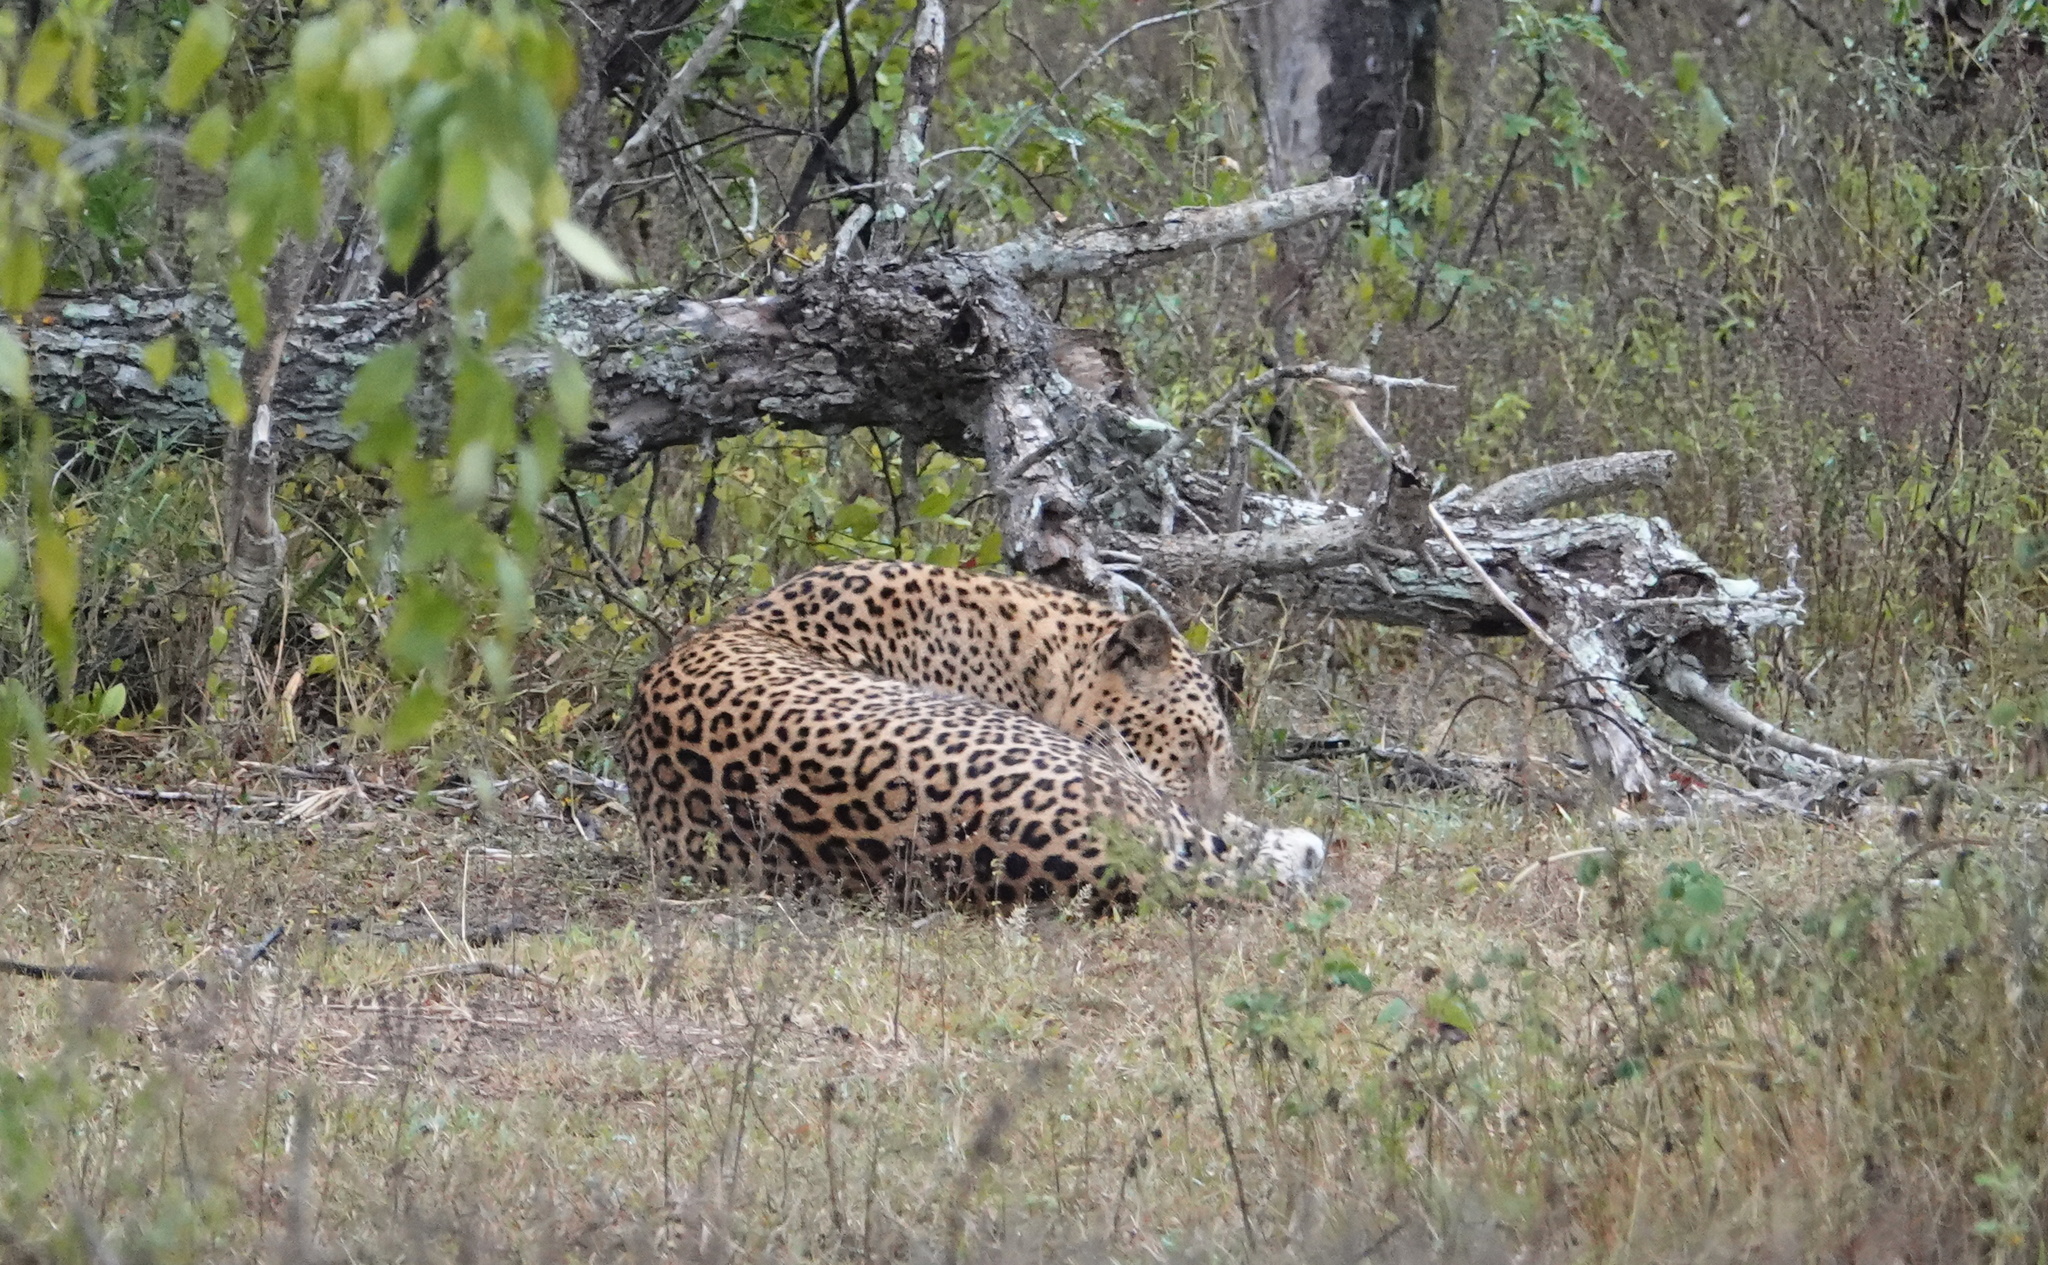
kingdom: Animalia
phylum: Chordata
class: Mammalia
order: Carnivora
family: Felidae
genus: Panthera
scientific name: Panthera pardus
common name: Leopard
